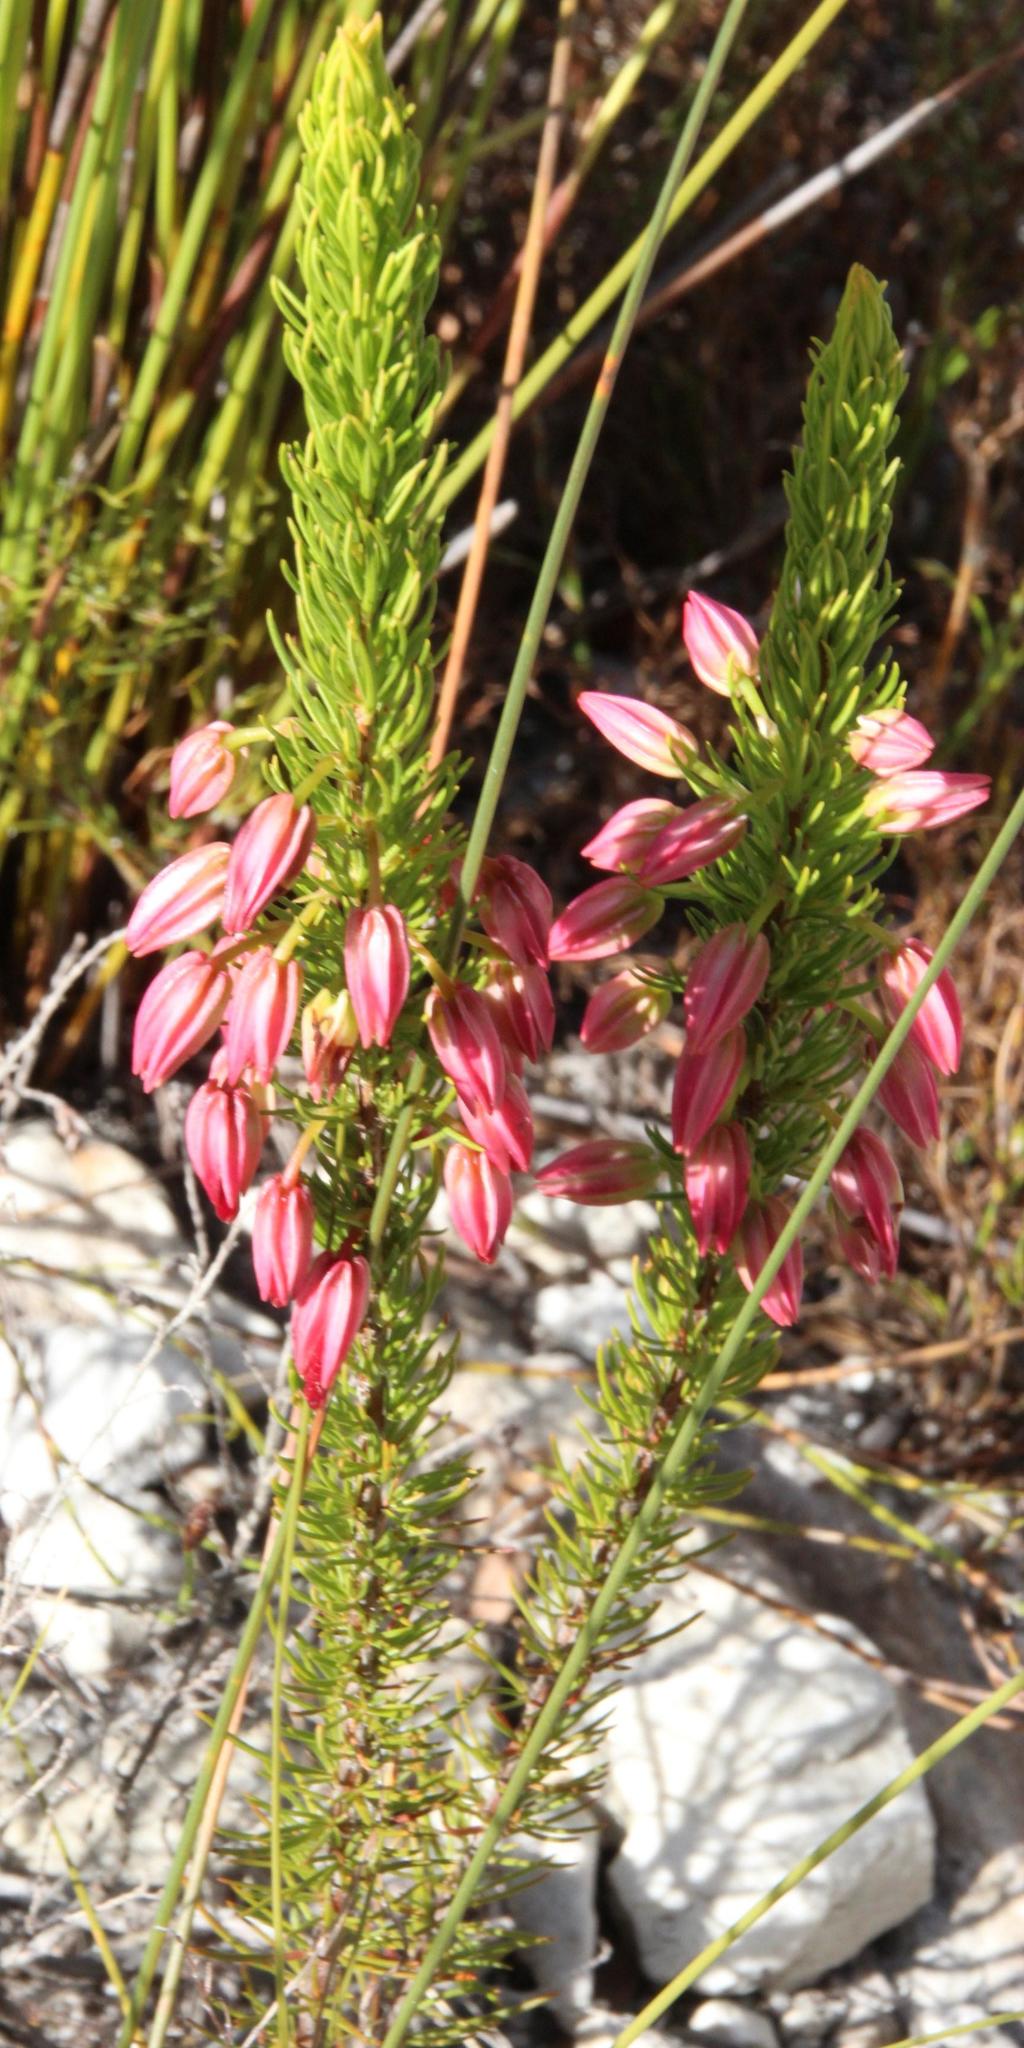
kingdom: Plantae
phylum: Tracheophyta
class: Magnoliopsida
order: Ericales
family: Ericaceae
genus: Erica
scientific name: Erica plukenetii
